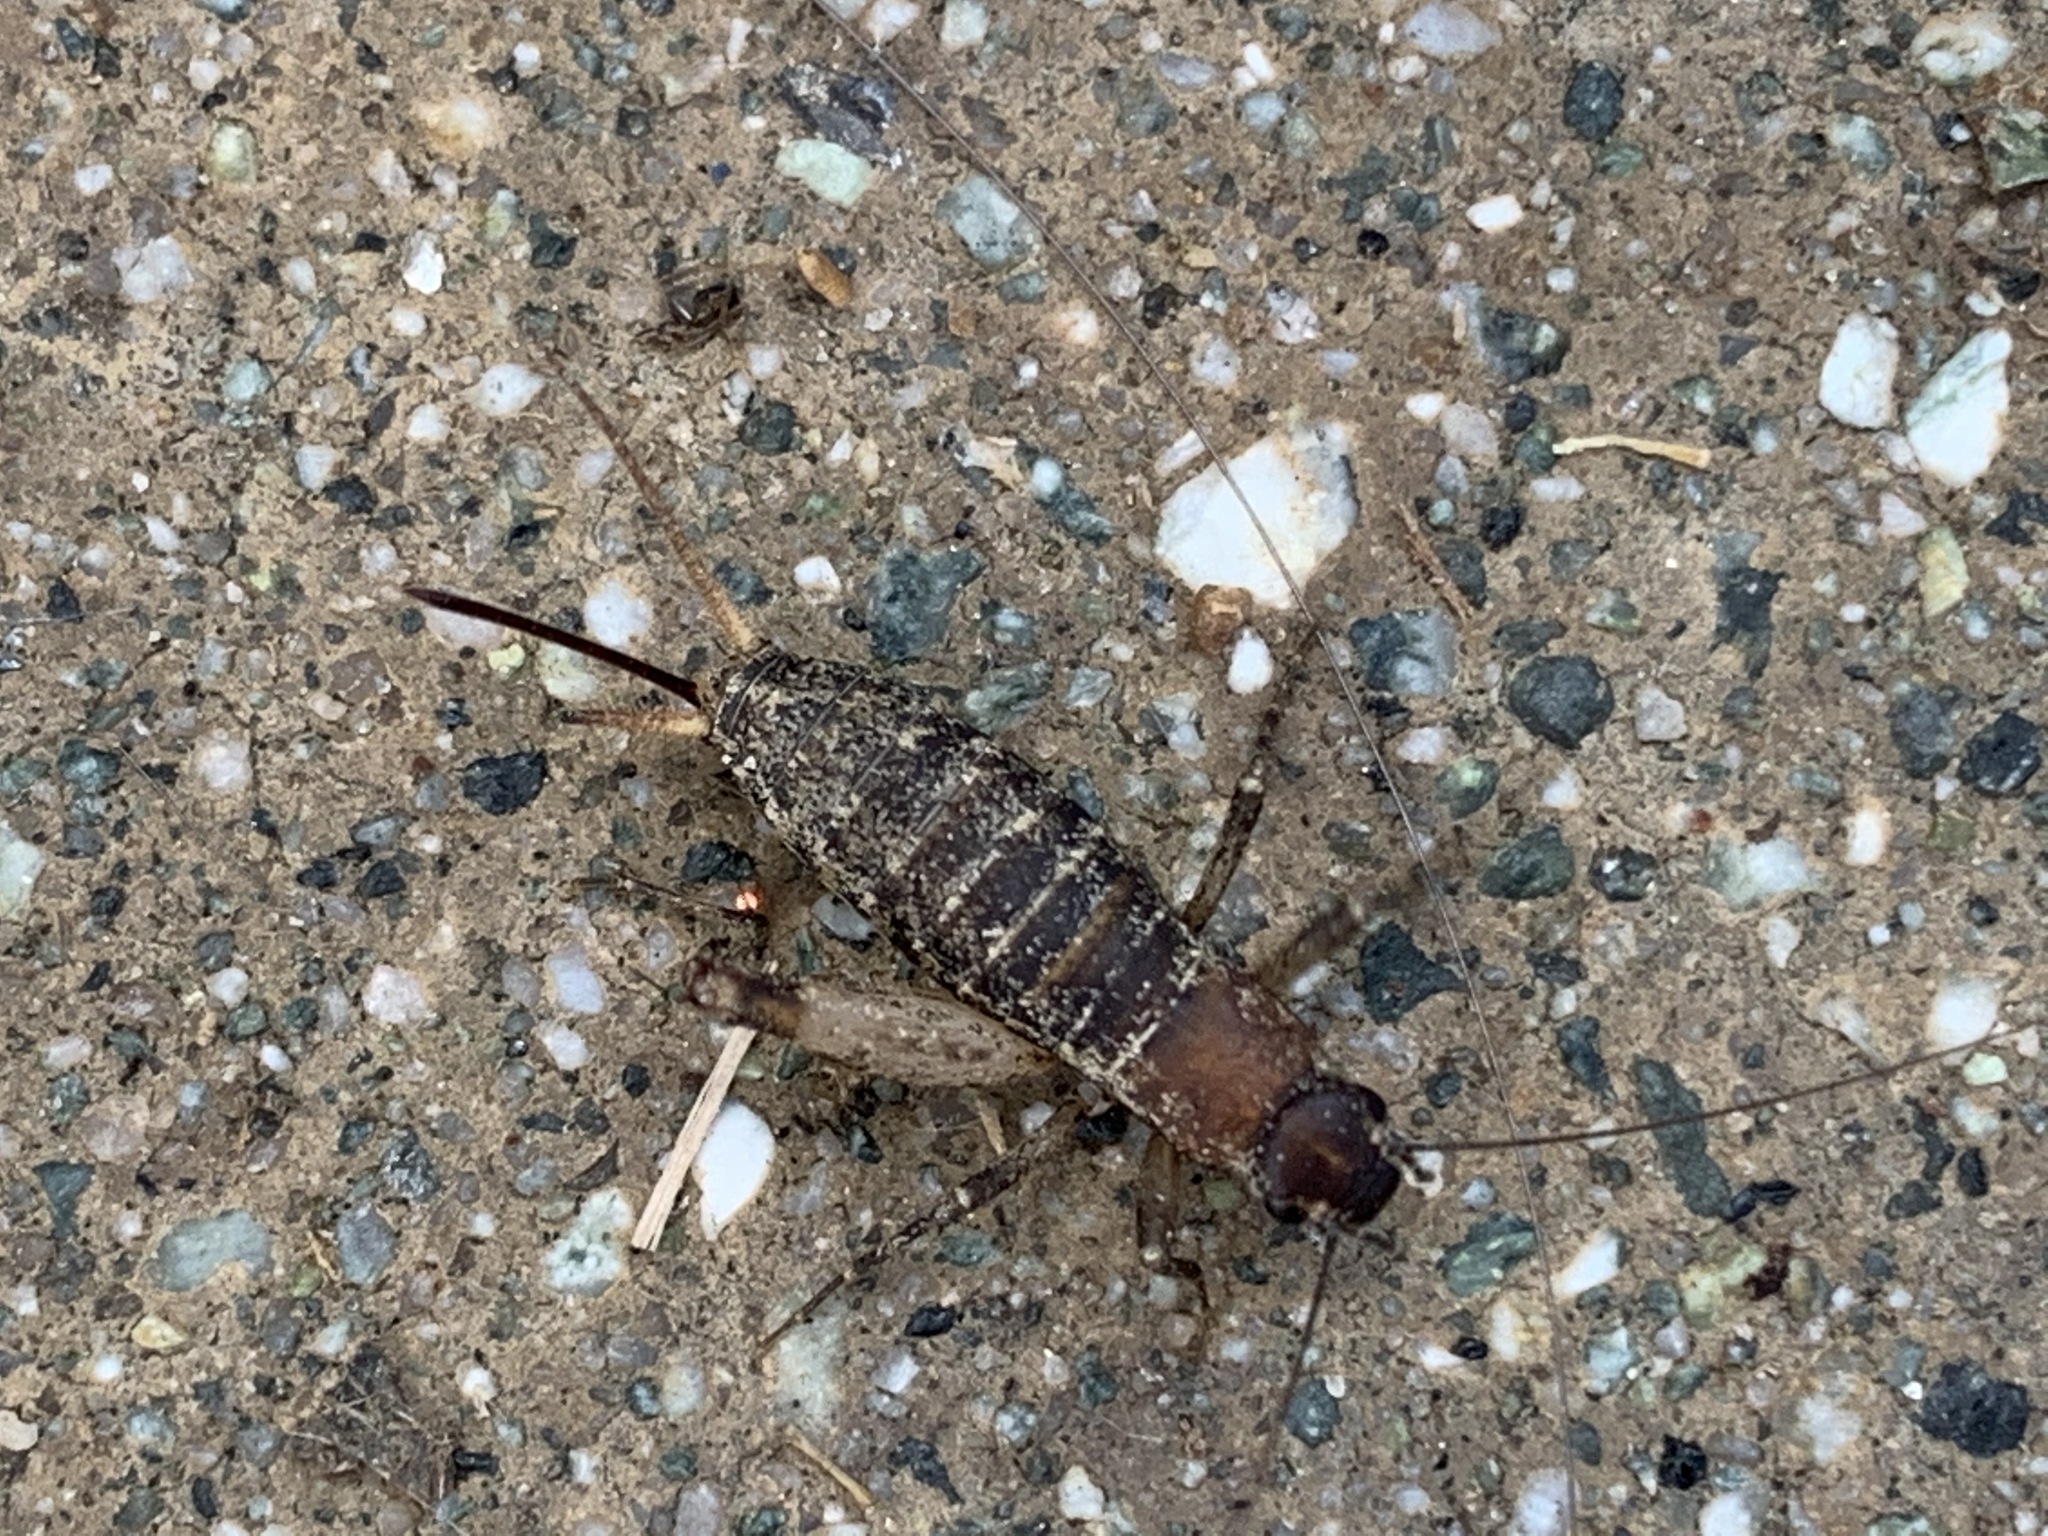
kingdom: Animalia
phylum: Arthropoda
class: Insecta
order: Orthoptera
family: Mogoplistidae
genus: Hoplosphyrum
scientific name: Hoplosphyrum boreale
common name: Long-winged scaly cricket
